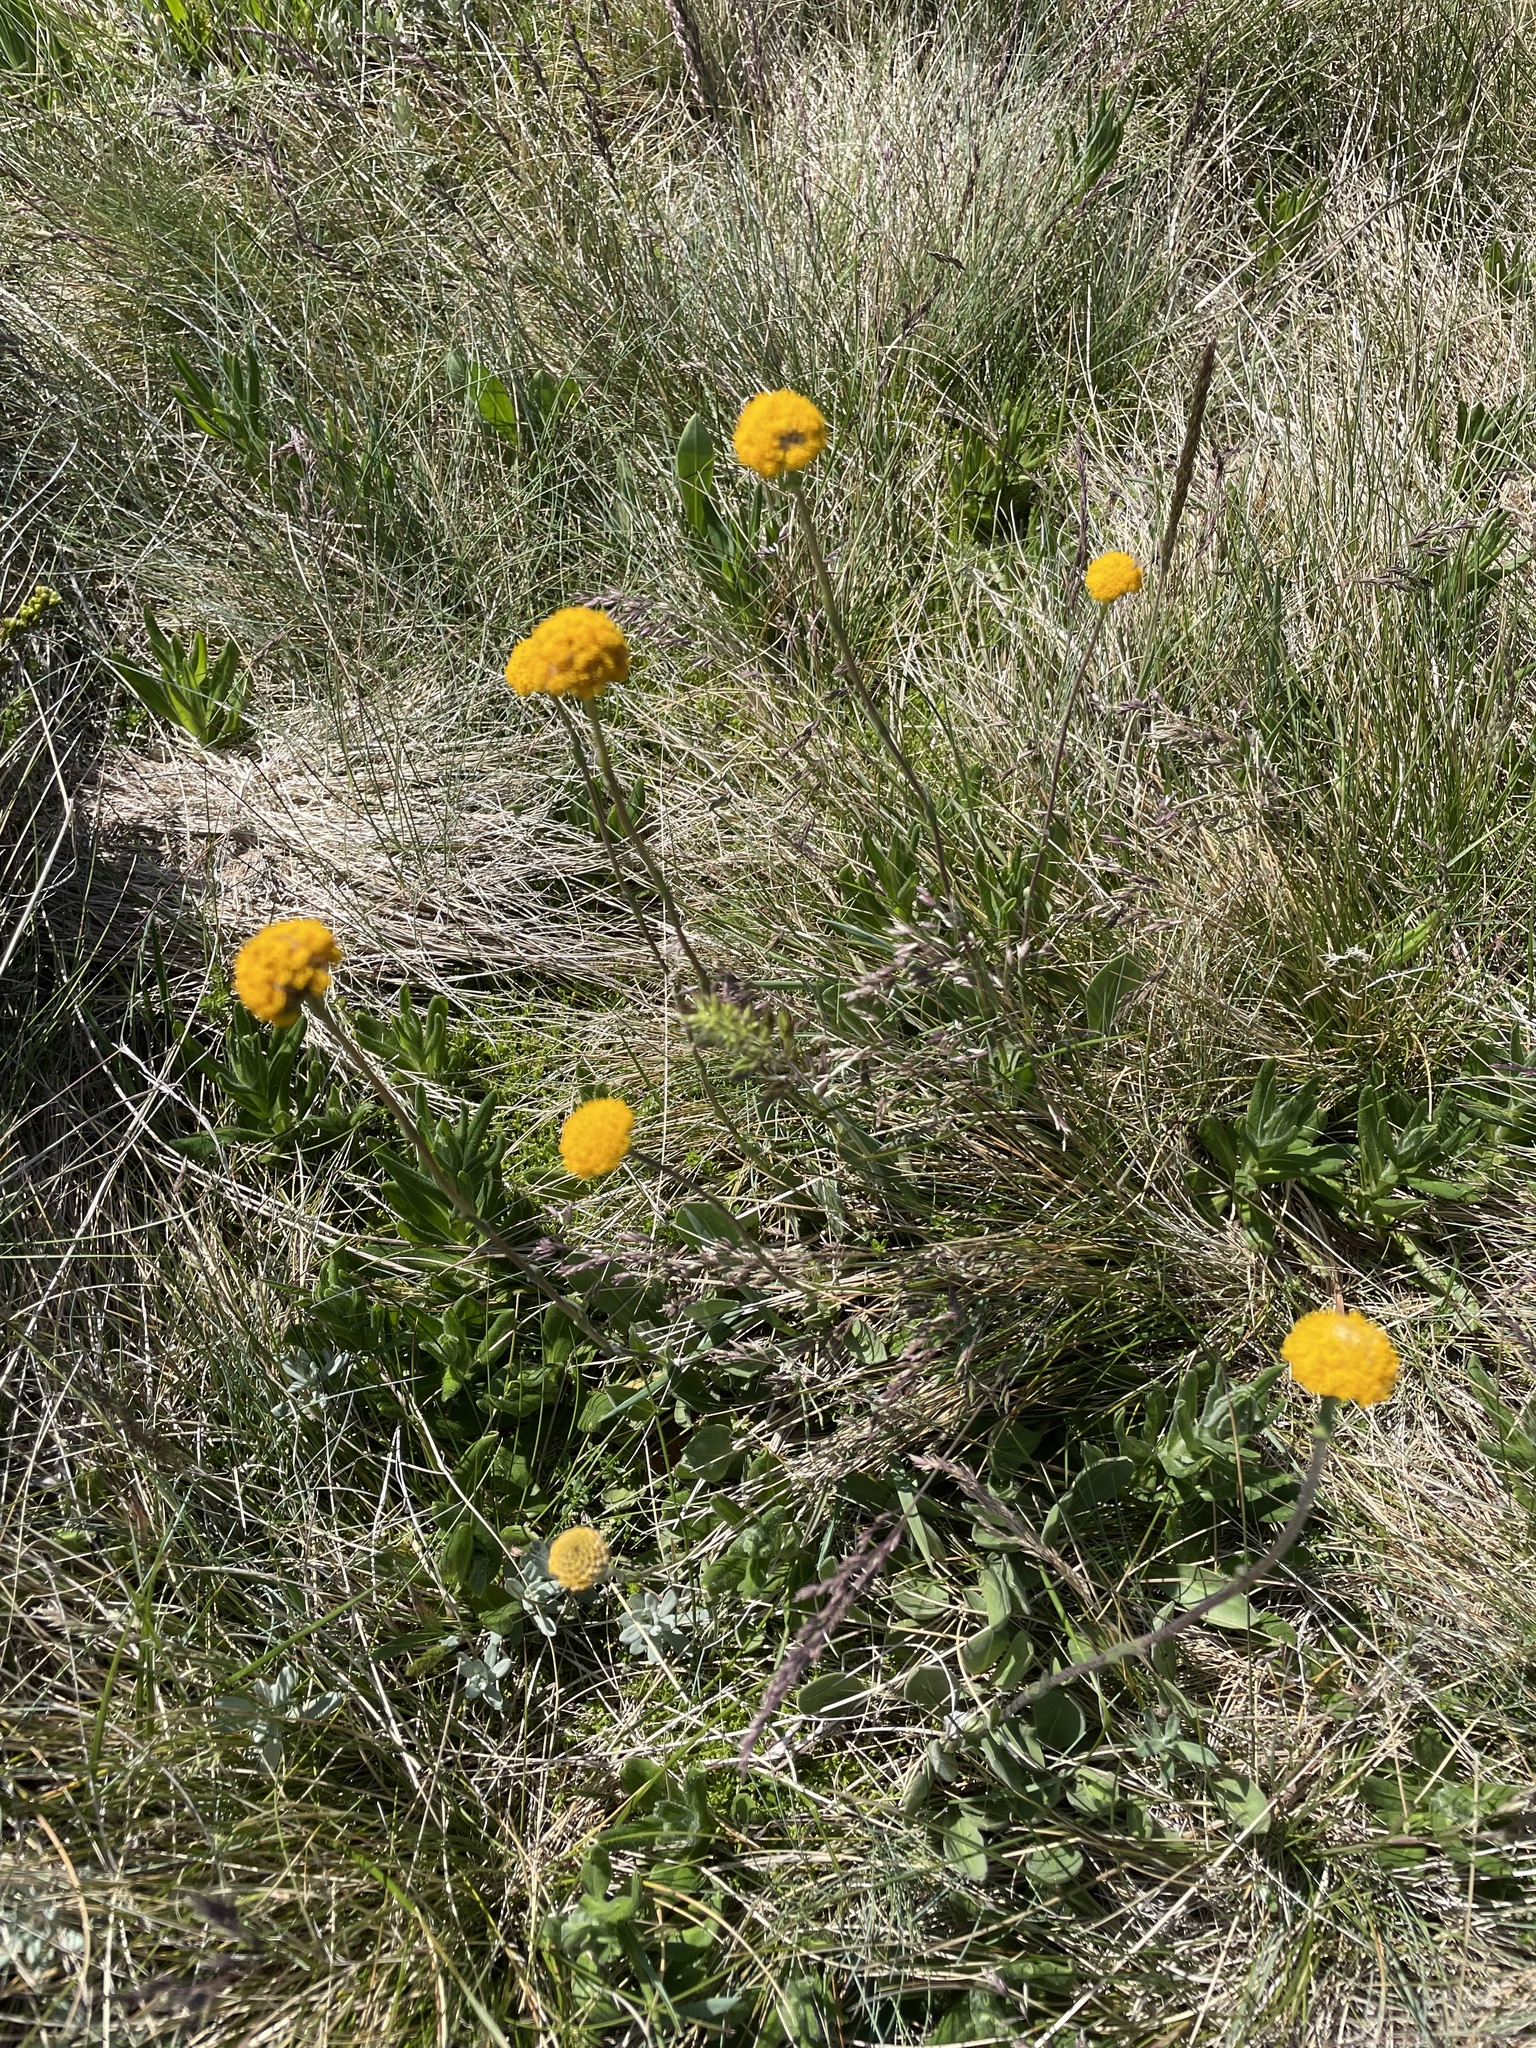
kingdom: Plantae
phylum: Tracheophyta
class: Magnoliopsida
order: Asterales
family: Asteraceae
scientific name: Asteraceae
